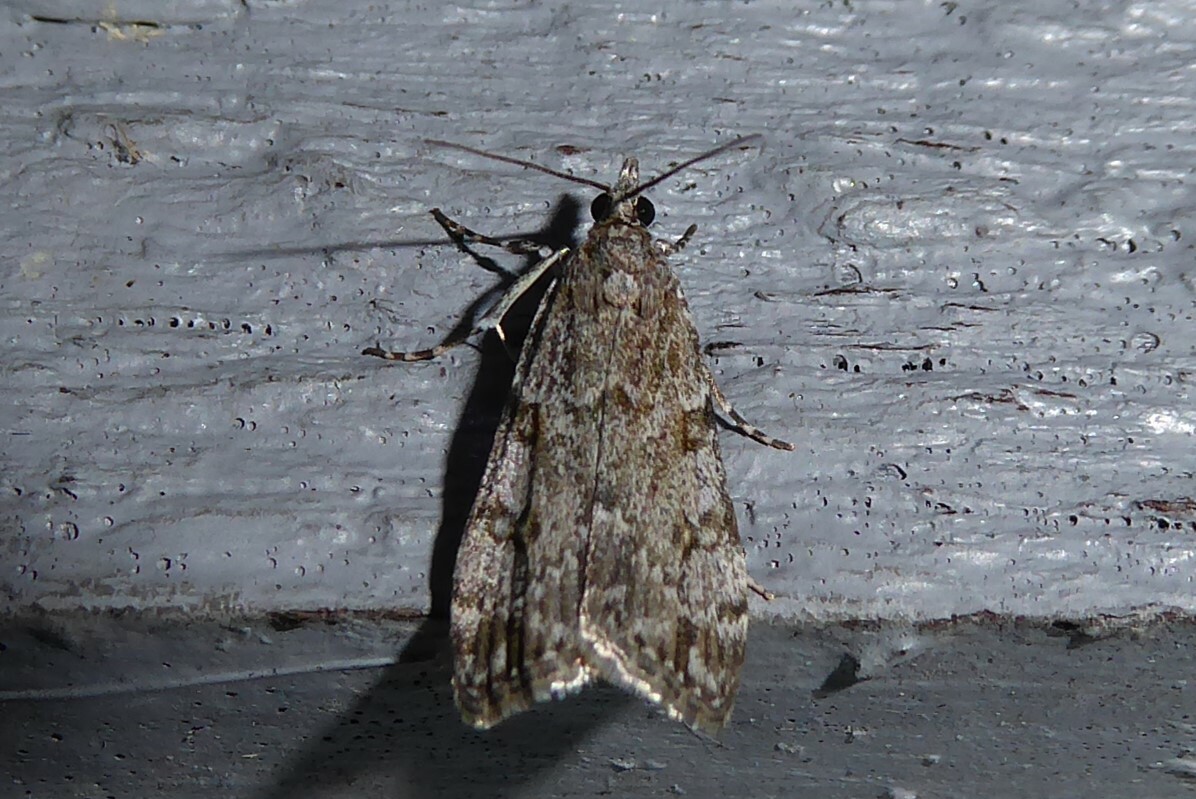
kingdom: Animalia
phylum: Arthropoda
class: Insecta
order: Lepidoptera
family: Crambidae
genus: Eudonia
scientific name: Eudonia cymatias
